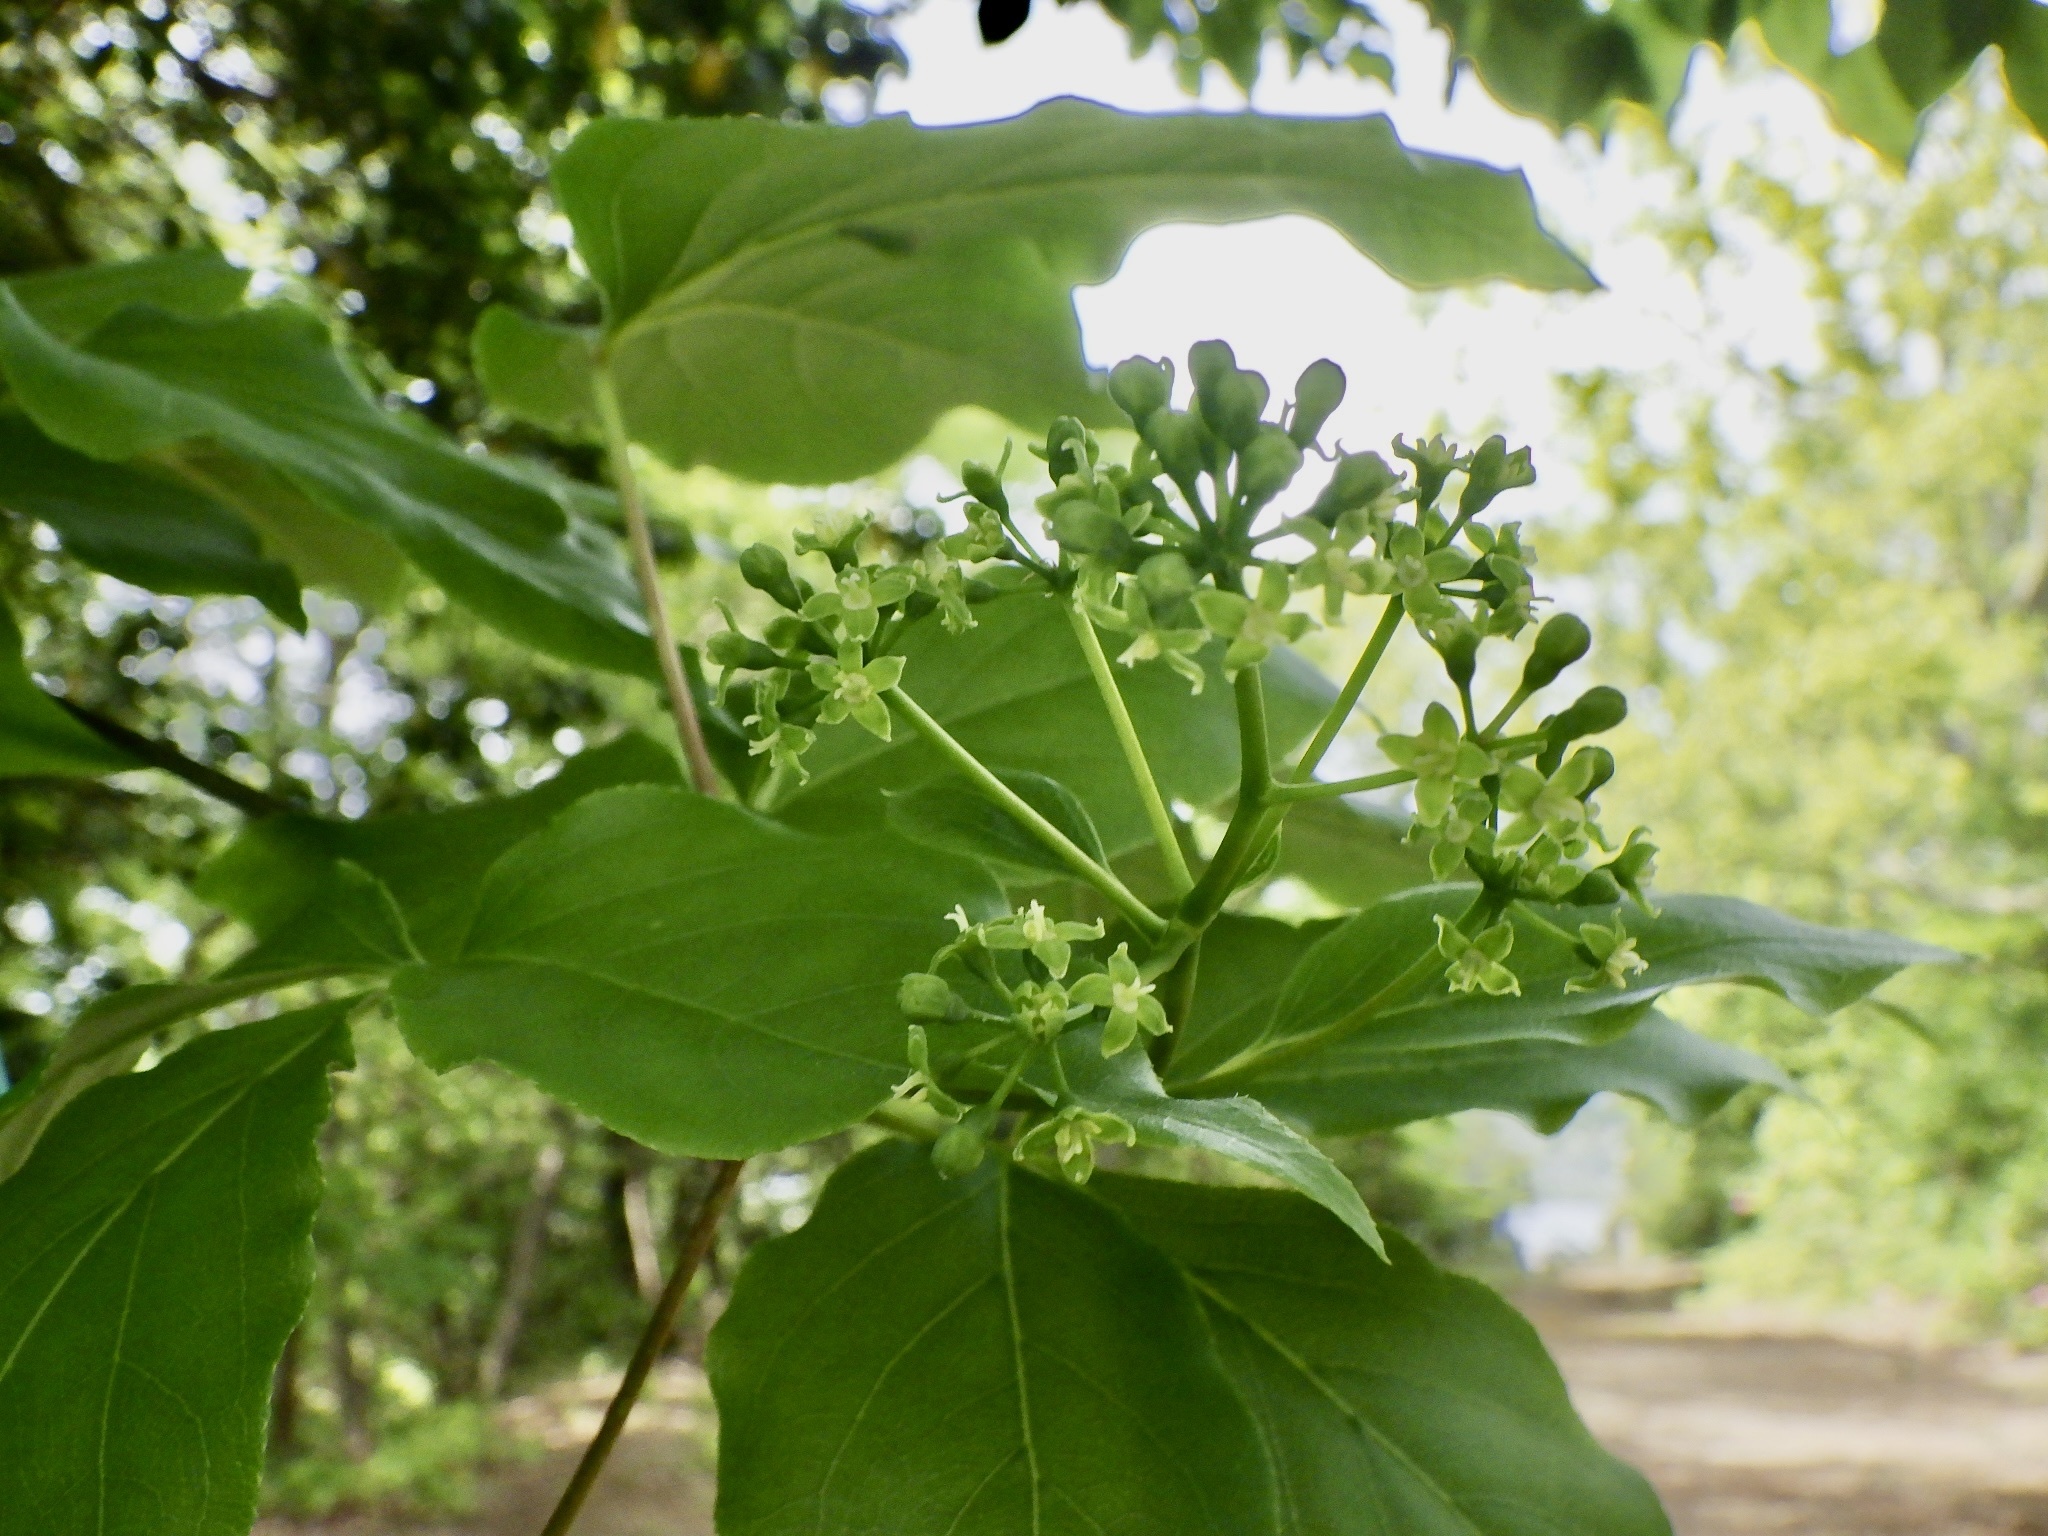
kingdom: Plantae
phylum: Tracheophyta
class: Magnoliopsida
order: Apiales
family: Araliaceae
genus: Gamblea
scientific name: Gamblea innovans
